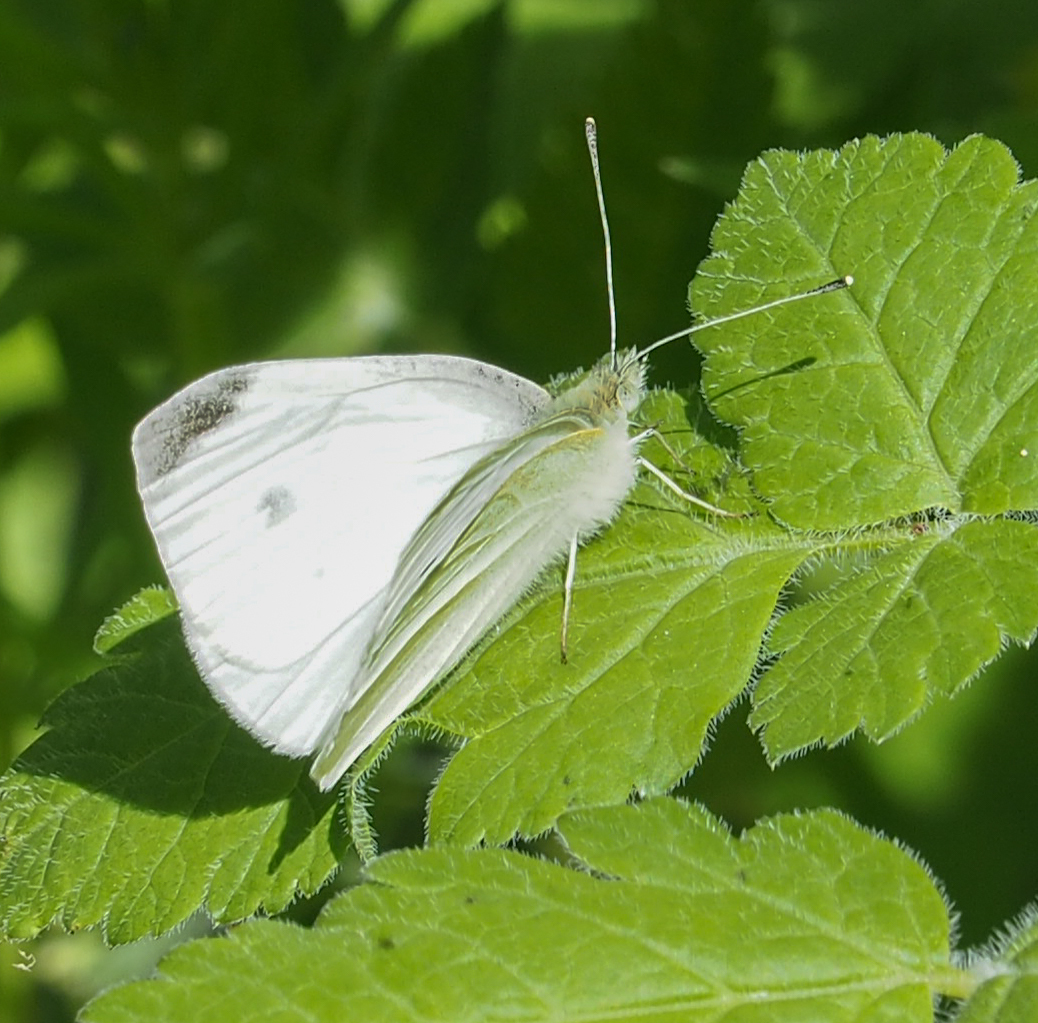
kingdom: Animalia
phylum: Arthropoda
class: Insecta
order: Lepidoptera
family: Pieridae
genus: Pieris
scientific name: Pieris rapae
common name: Small white
